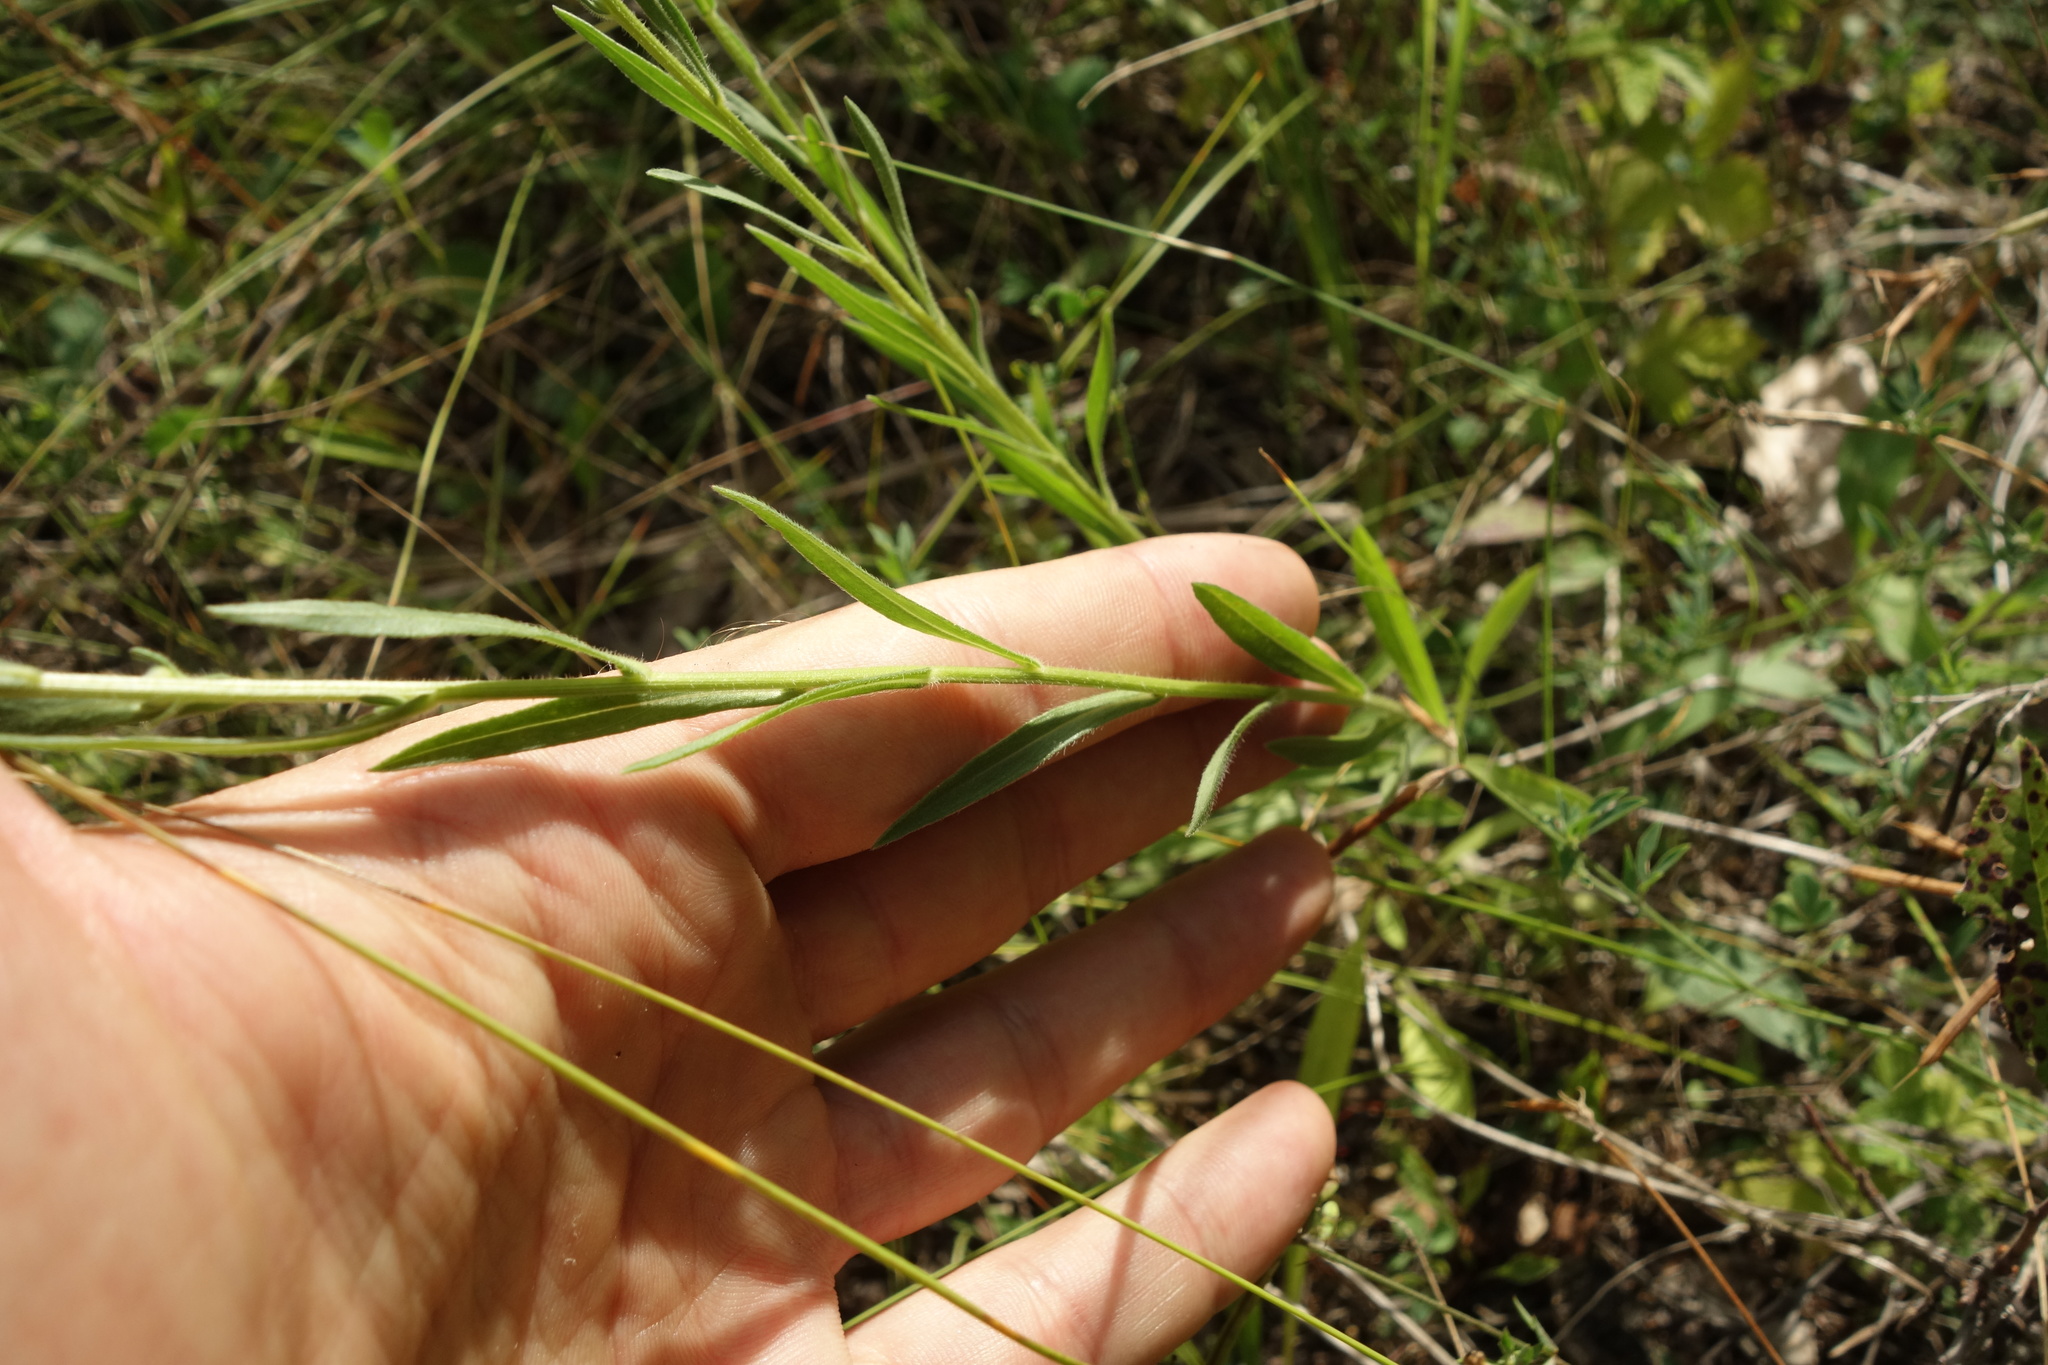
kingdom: Plantae
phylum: Tracheophyta
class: Magnoliopsida
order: Asterales
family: Asteraceae
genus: Erigeron
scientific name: Erigeron acris
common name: Blue fleabane
